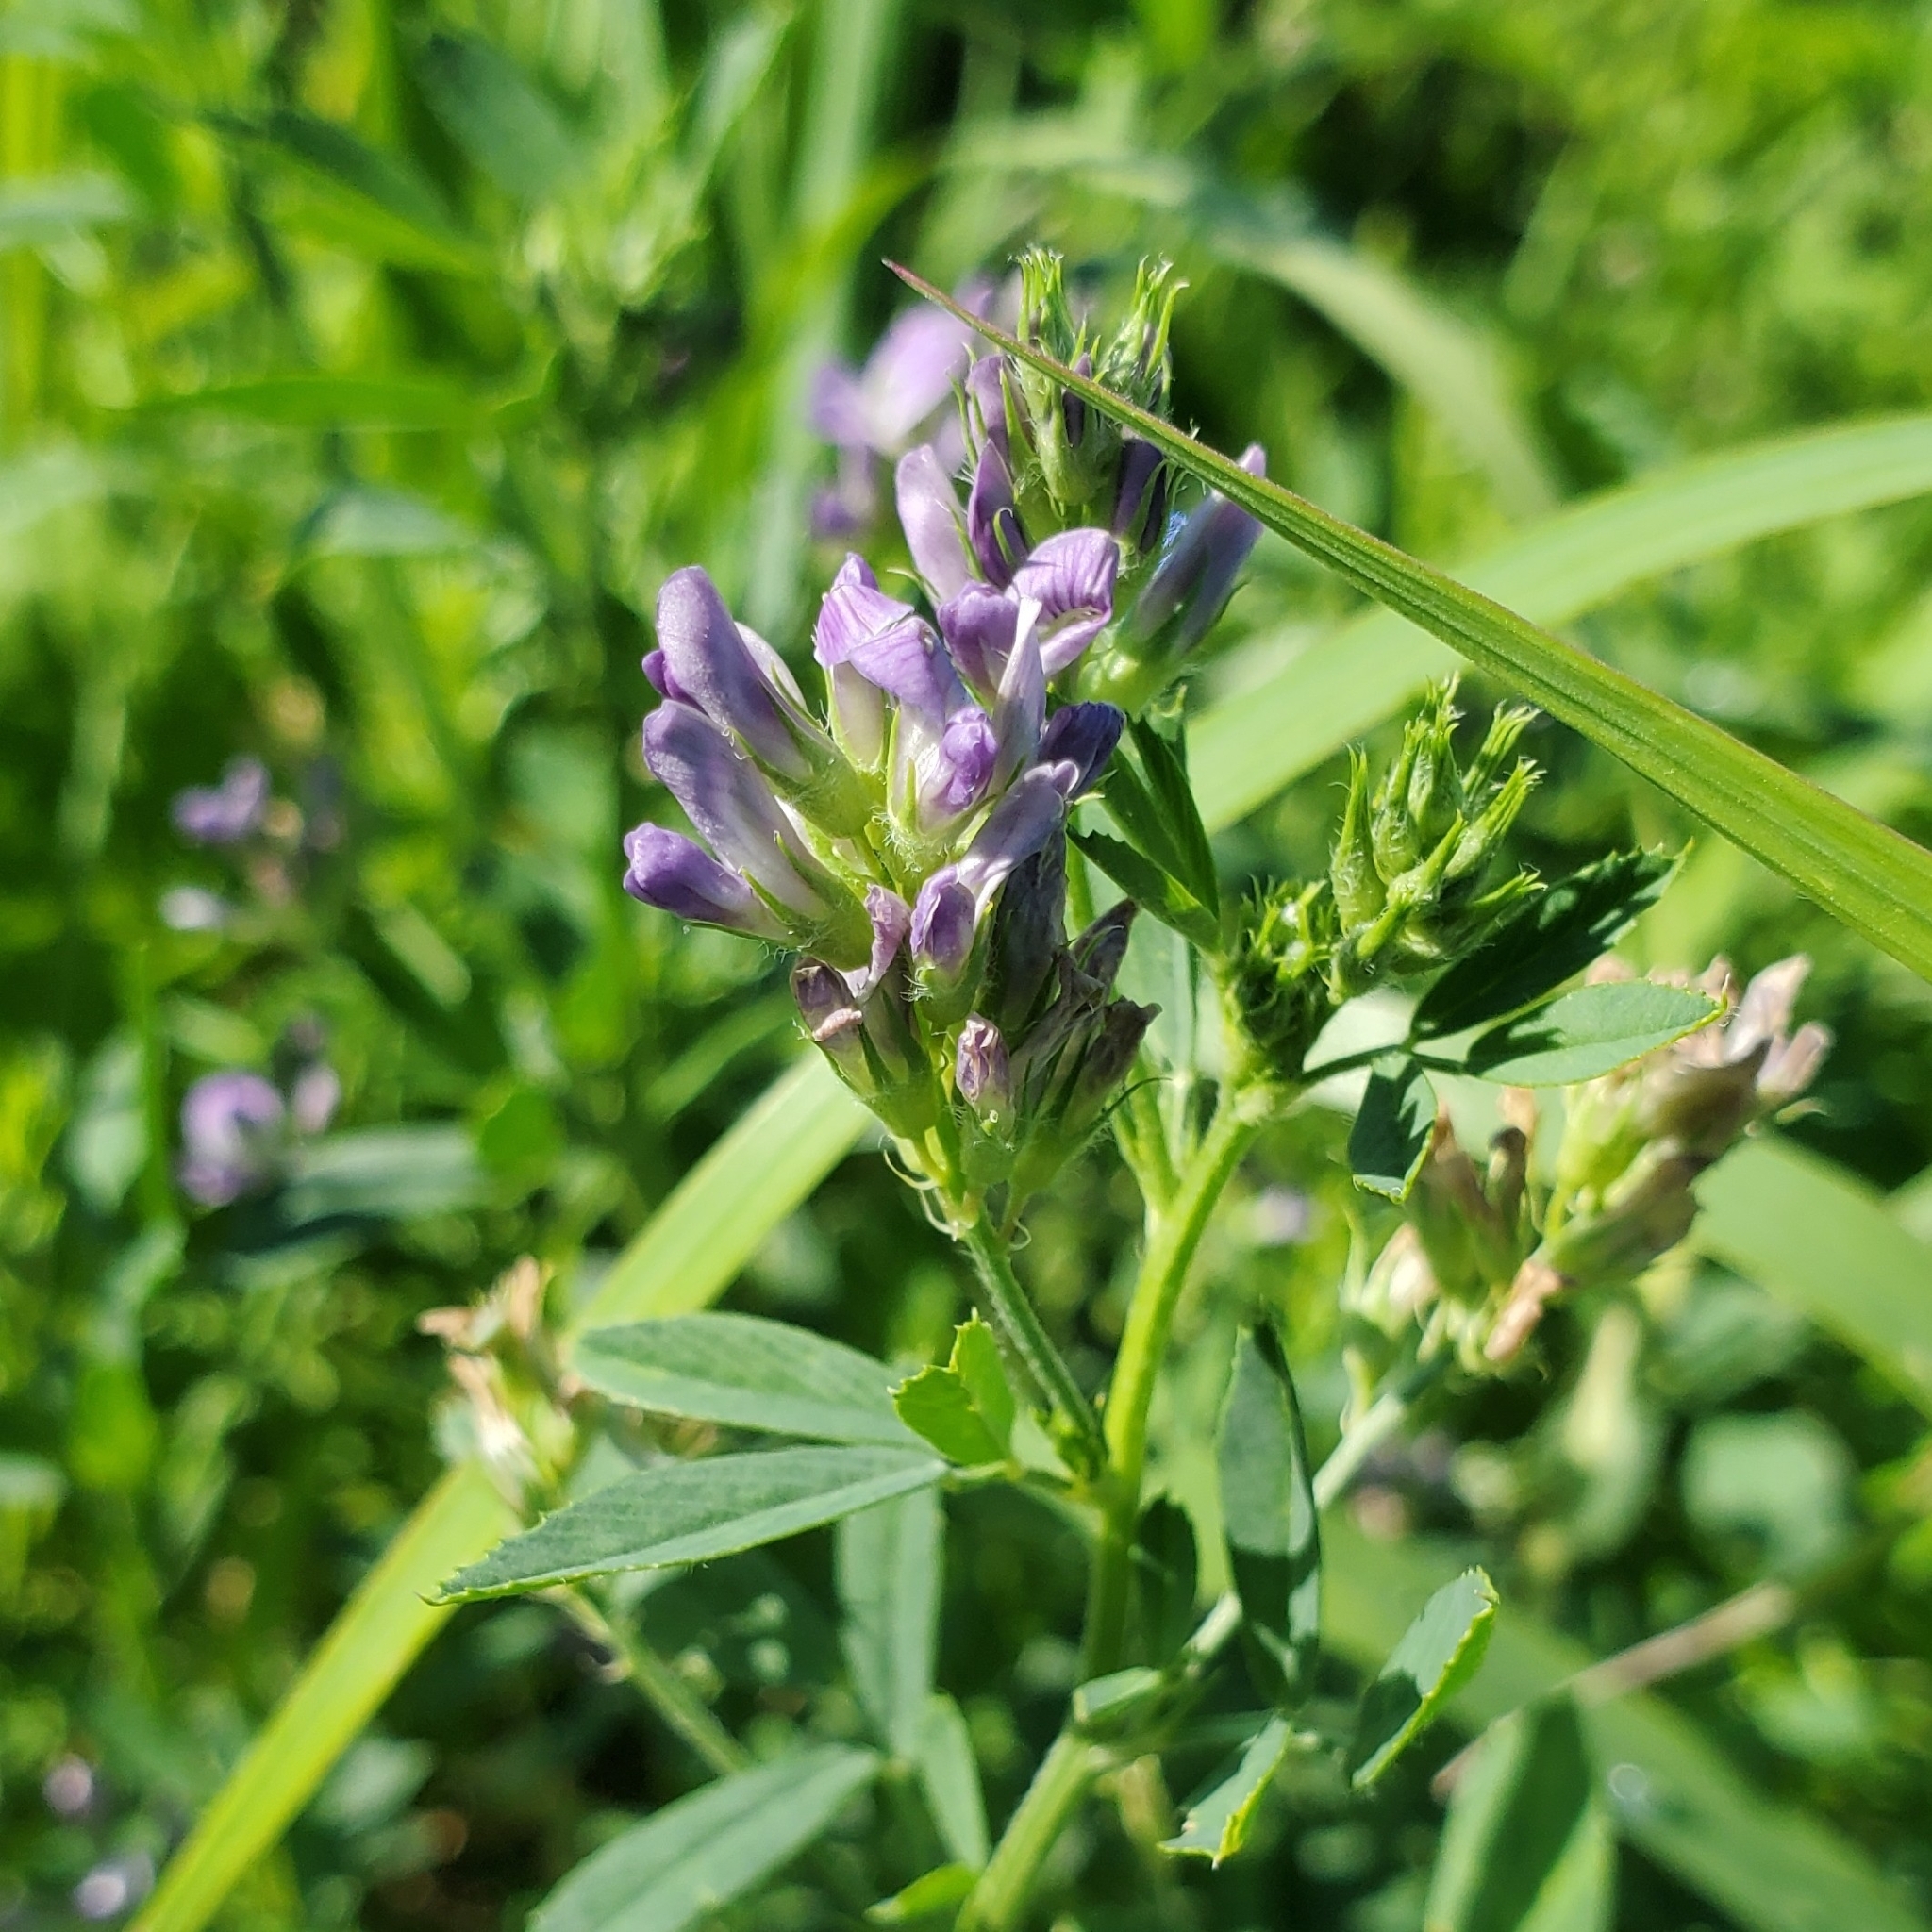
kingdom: Plantae
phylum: Tracheophyta
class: Magnoliopsida
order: Fabales
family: Fabaceae
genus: Medicago
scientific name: Medicago sativa
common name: Alfalfa
